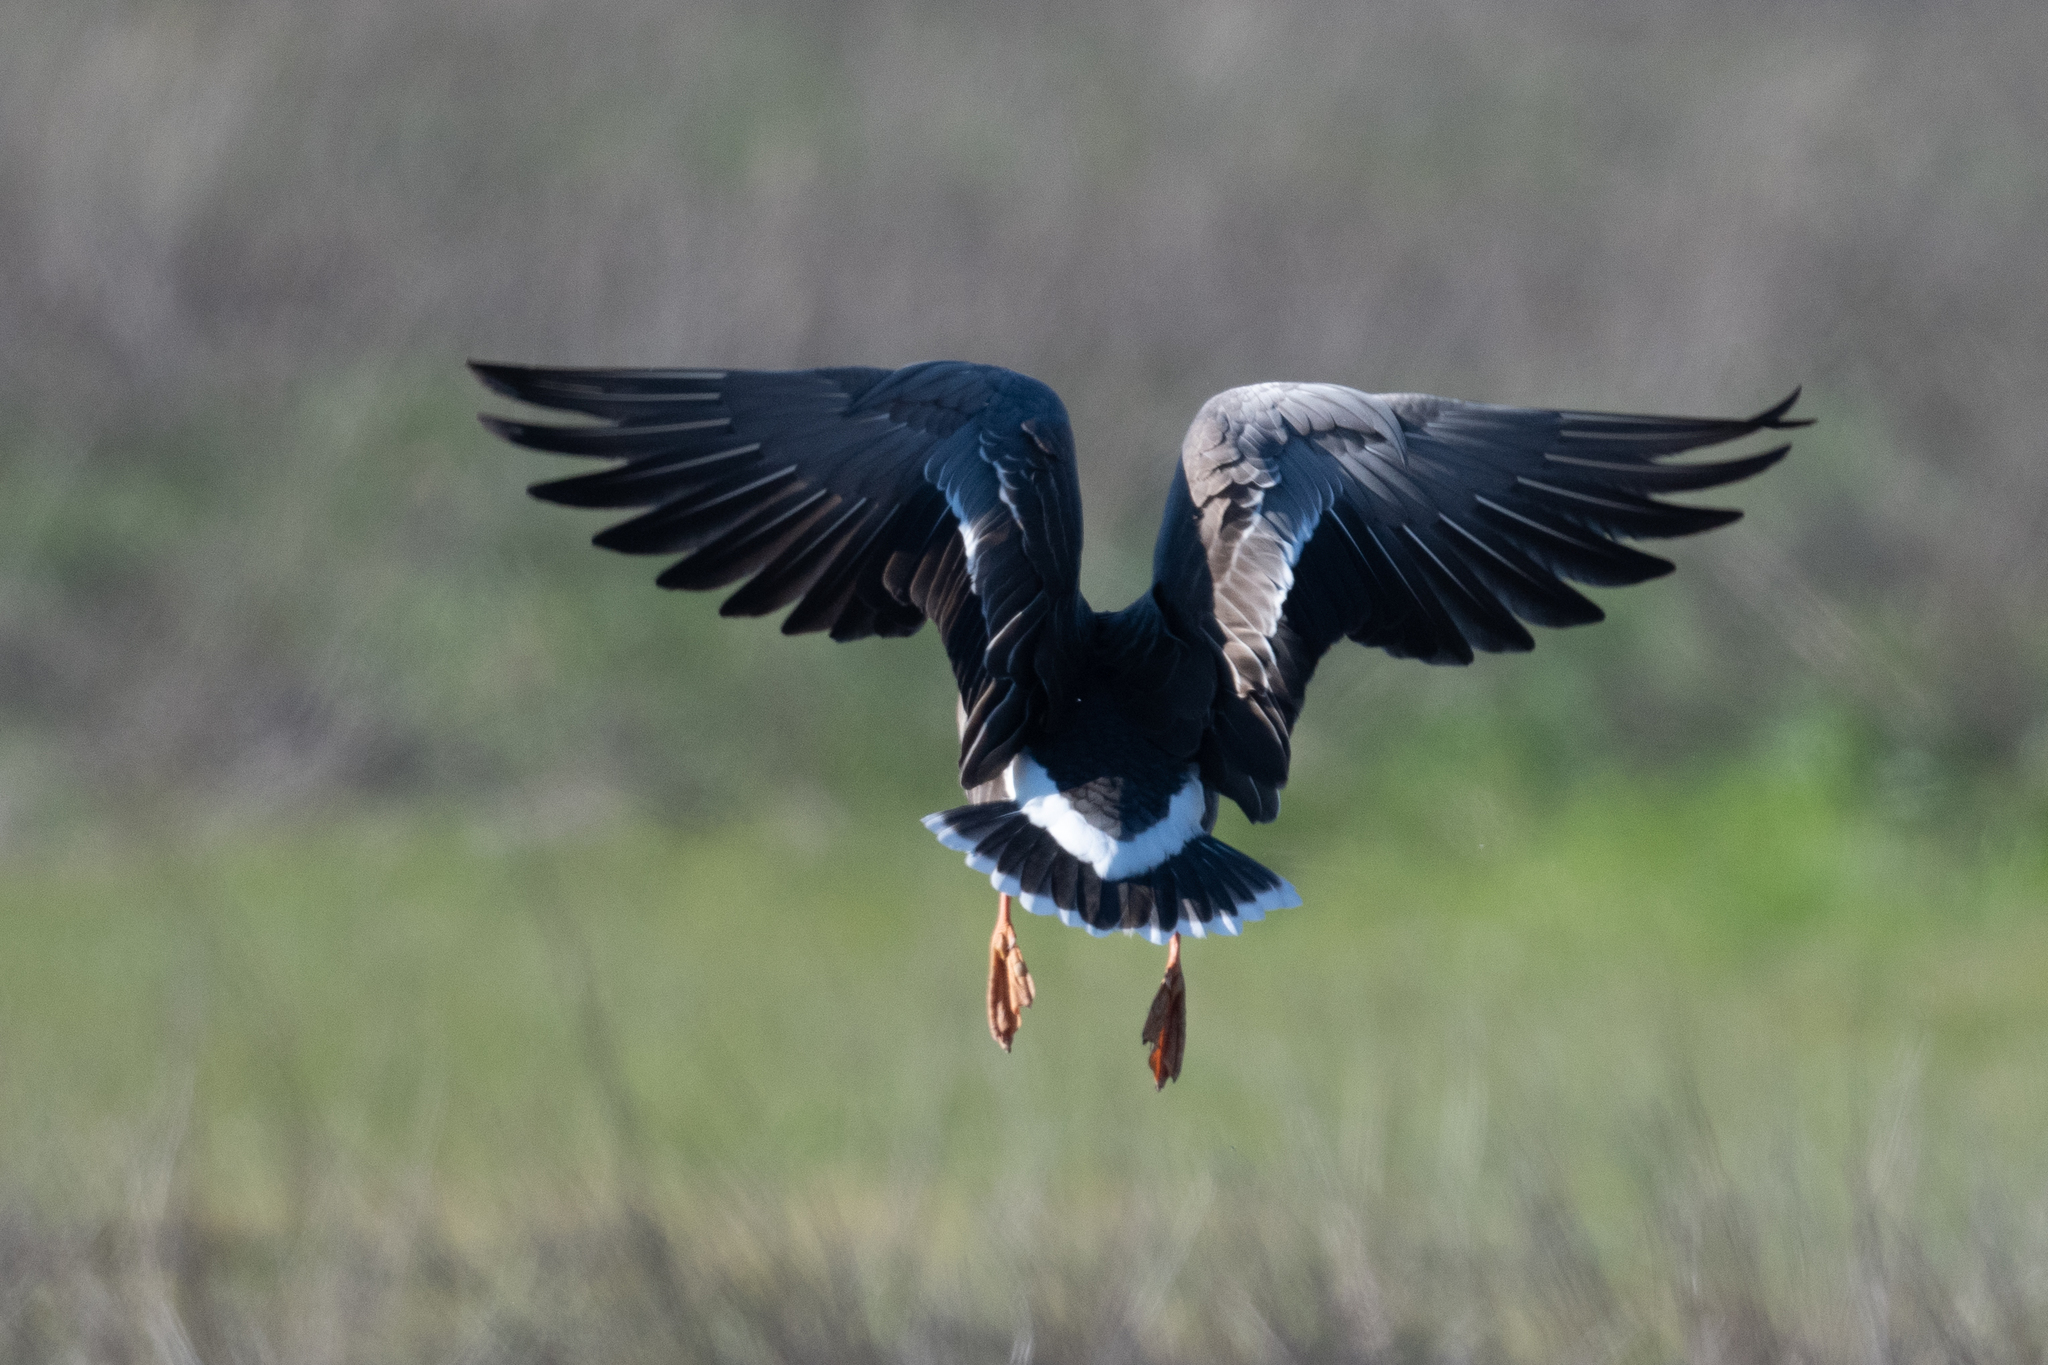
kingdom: Animalia
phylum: Chordata
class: Aves
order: Anseriformes
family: Anatidae
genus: Anser
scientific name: Anser albifrons
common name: Greater white-fronted goose
